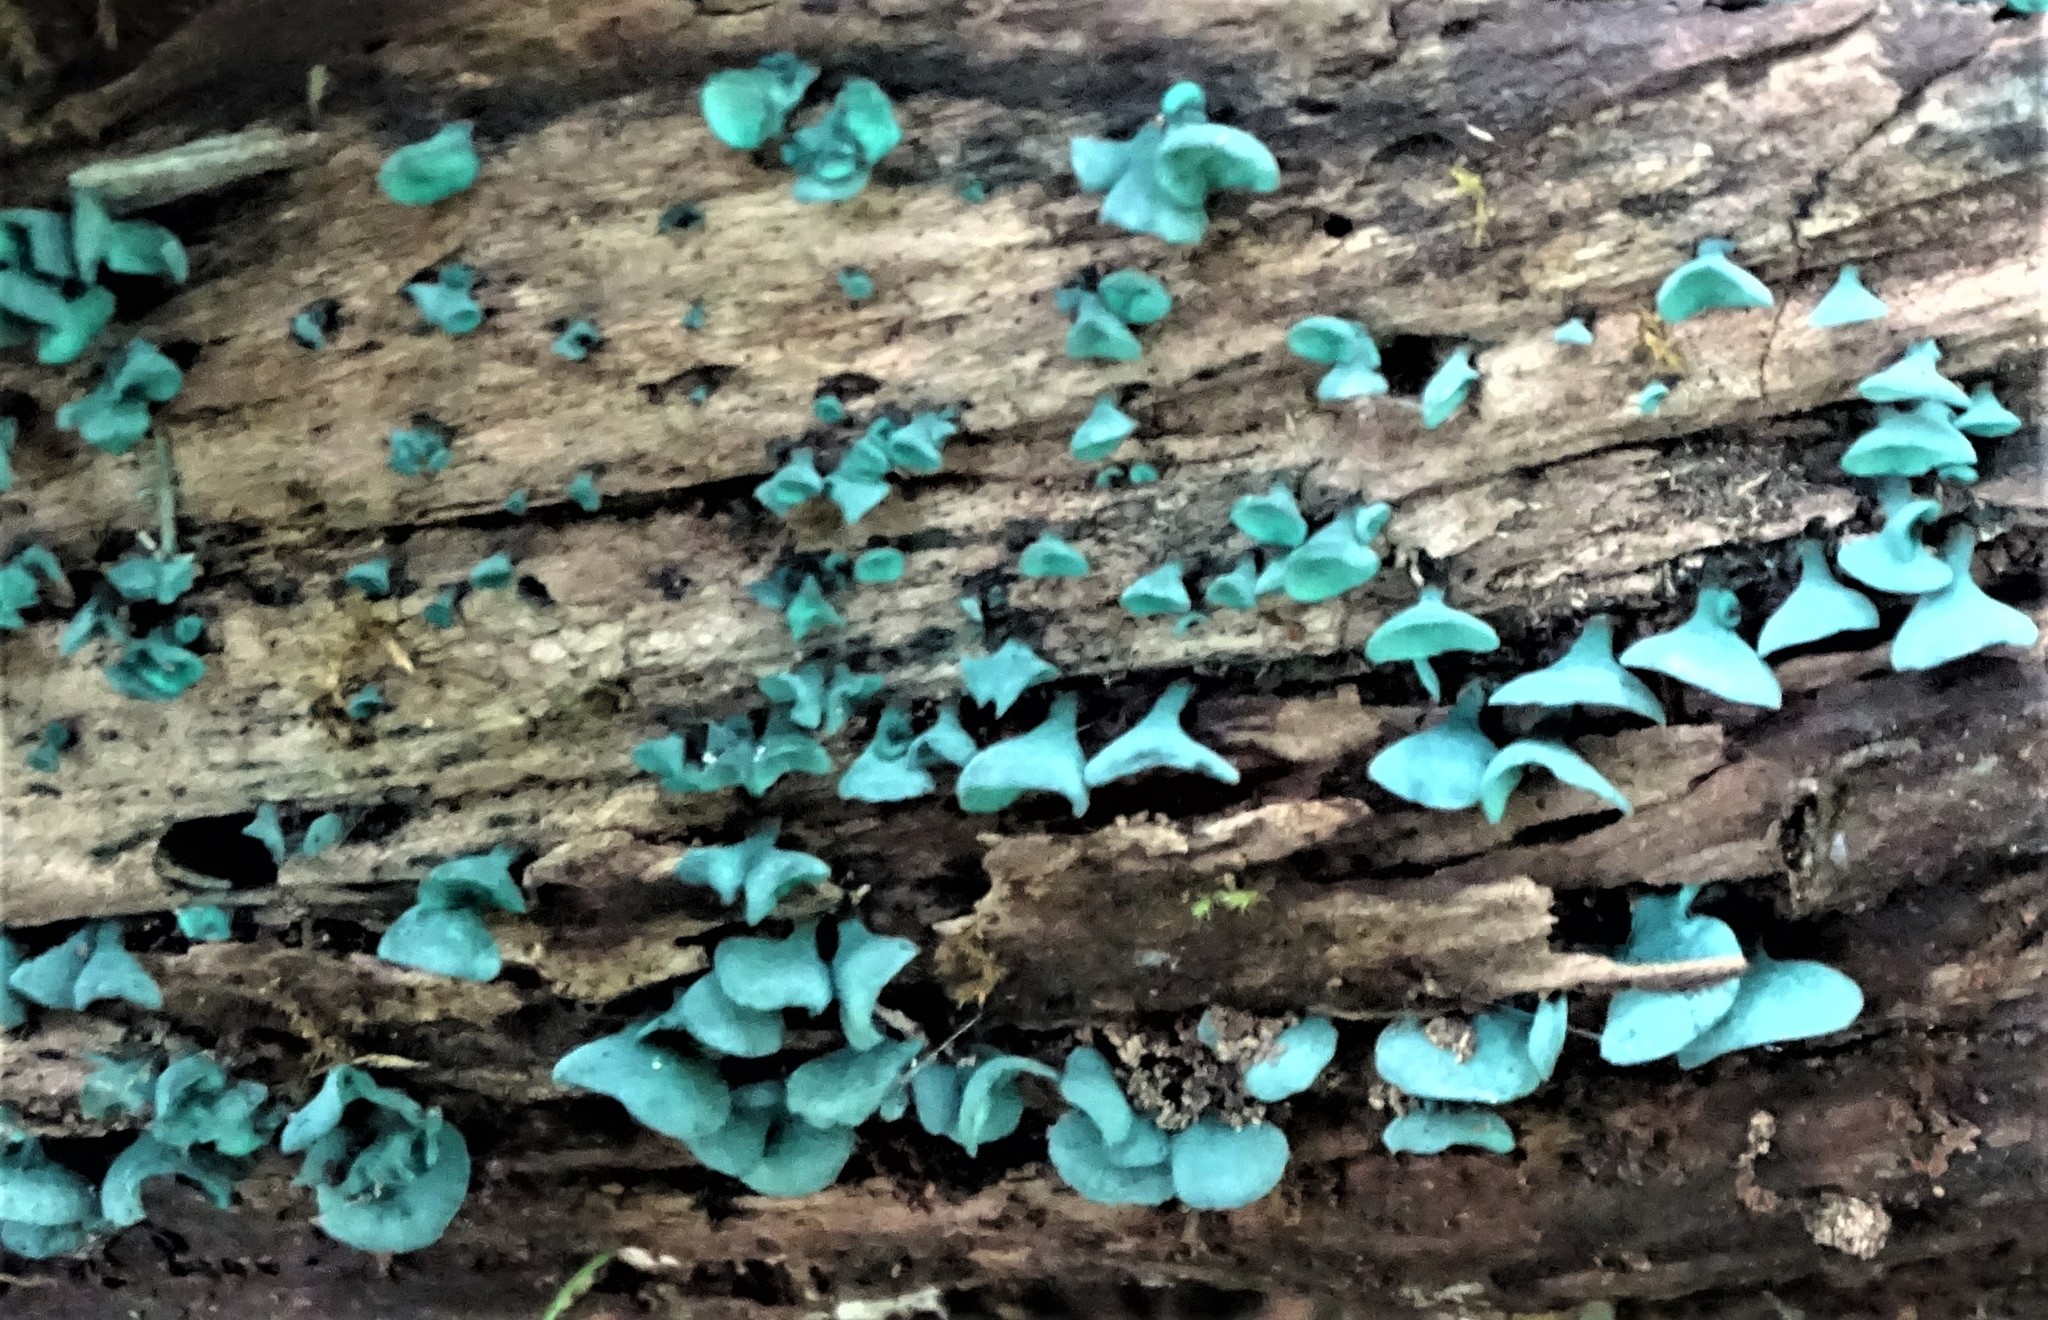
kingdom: Fungi
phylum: Ascomycota
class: Leotiomycetes
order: Helotiales
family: Chlorociboriaceae
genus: Chlorociboria
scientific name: Chlorociboria aeruginascens
